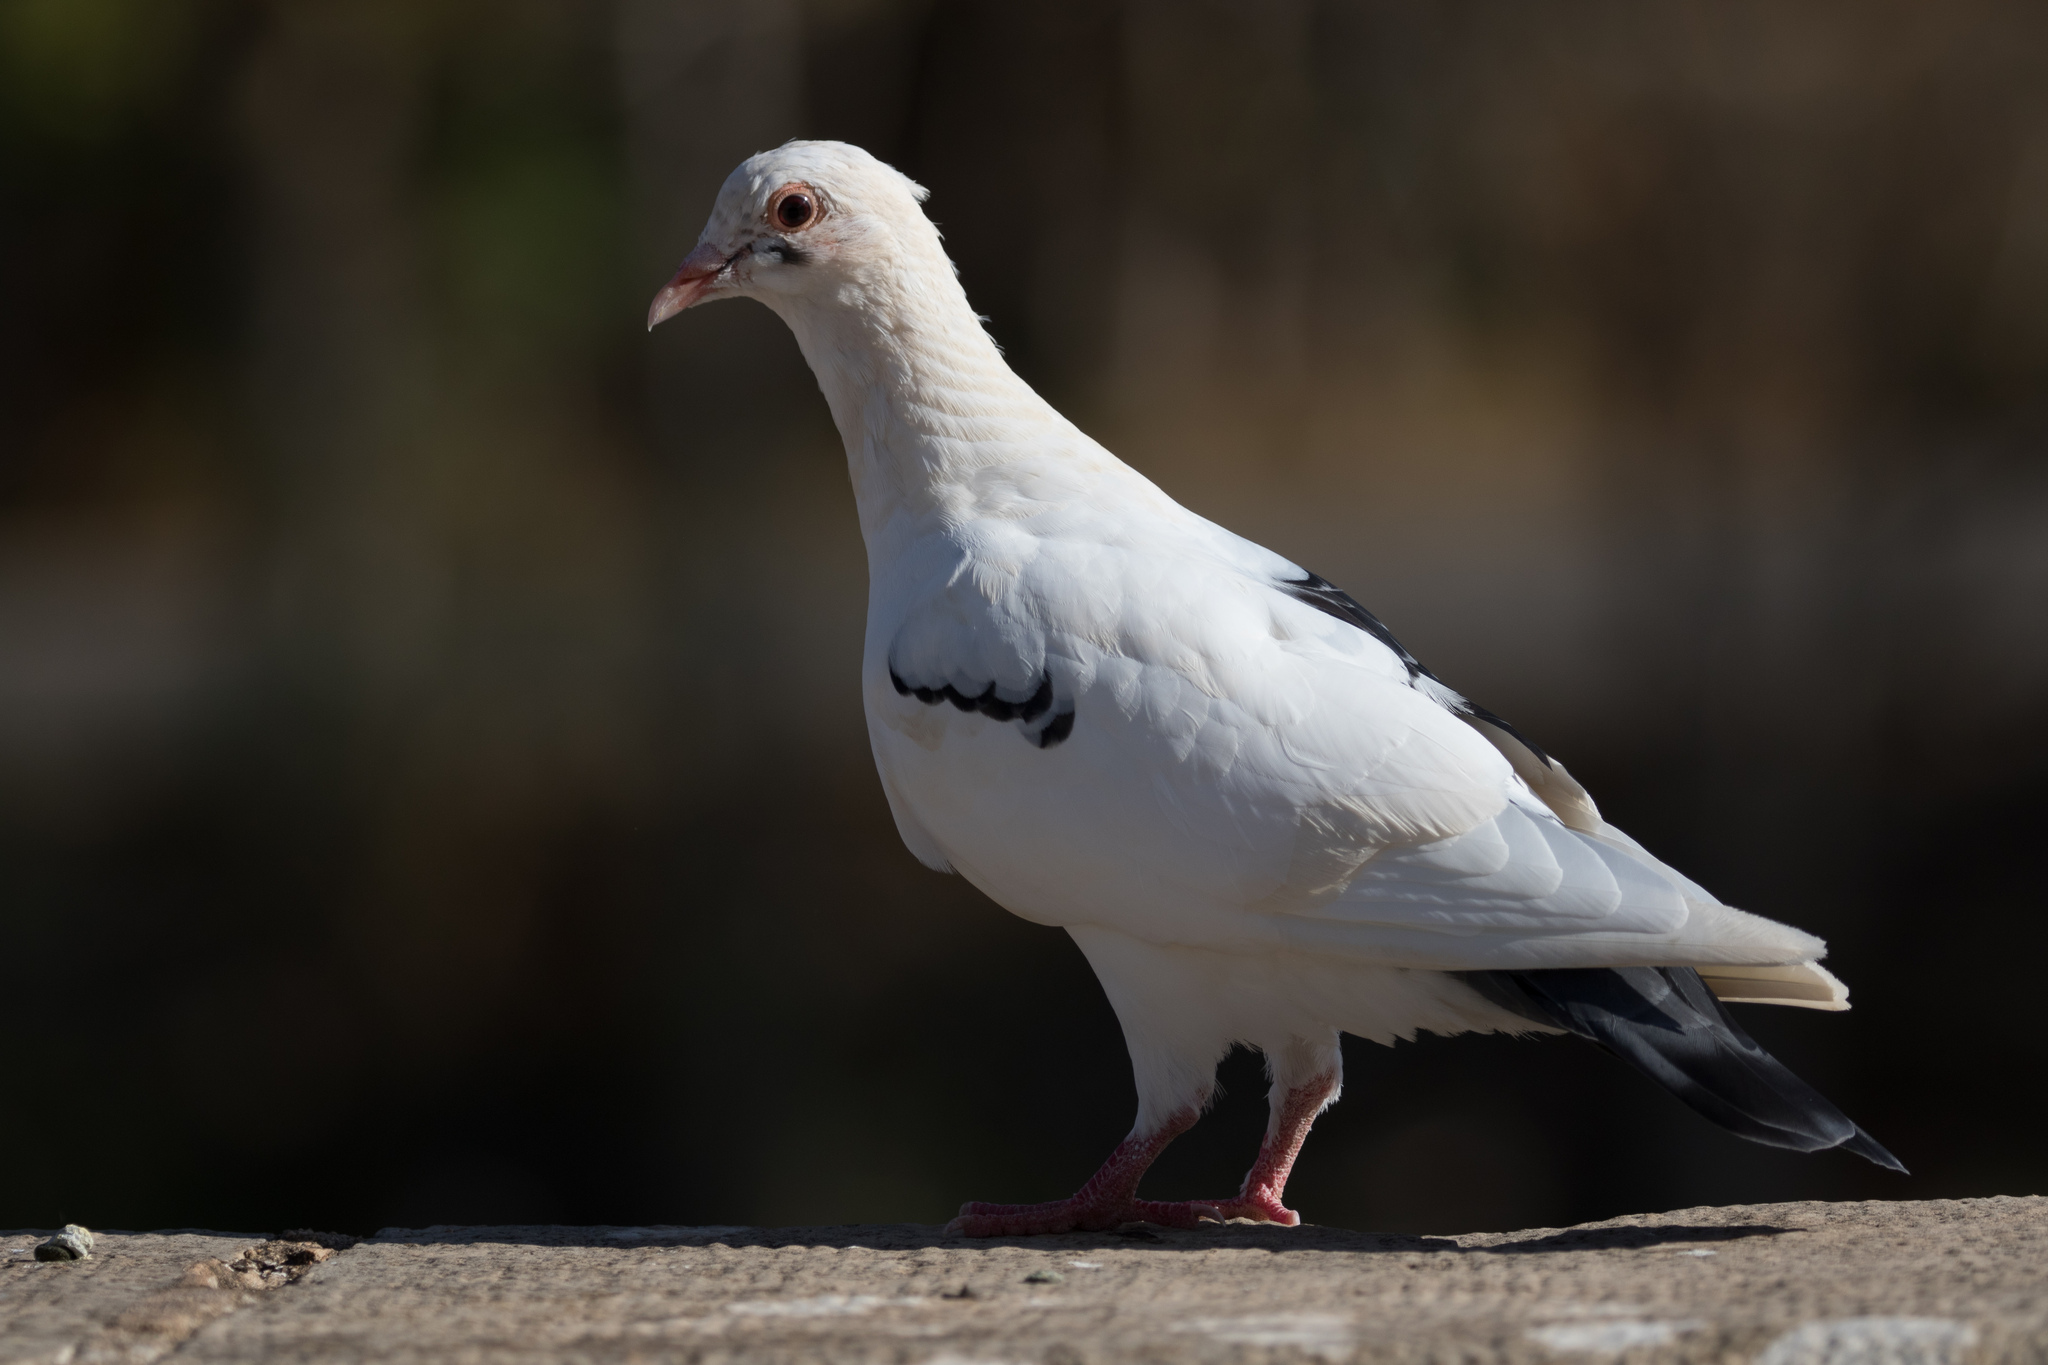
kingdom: Animalia
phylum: Chordata
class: Aves
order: Columbiformes
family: Columbidae
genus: Columba
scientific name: Columba livia
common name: Rock pigeon
